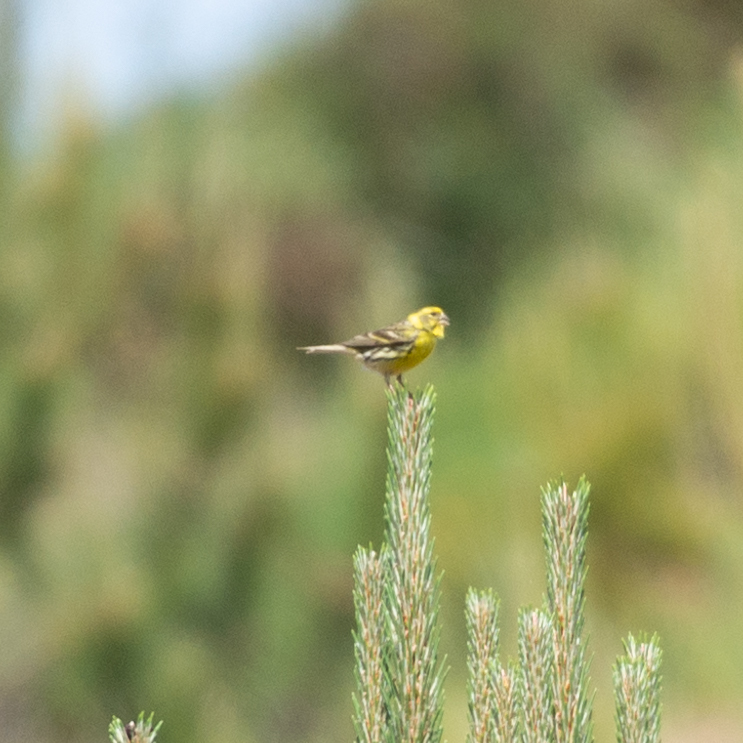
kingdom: Animalia
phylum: Chordata
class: Aves
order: Passeriformes
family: Fringillidae
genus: Serinus
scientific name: Serinus serinus
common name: European serin
